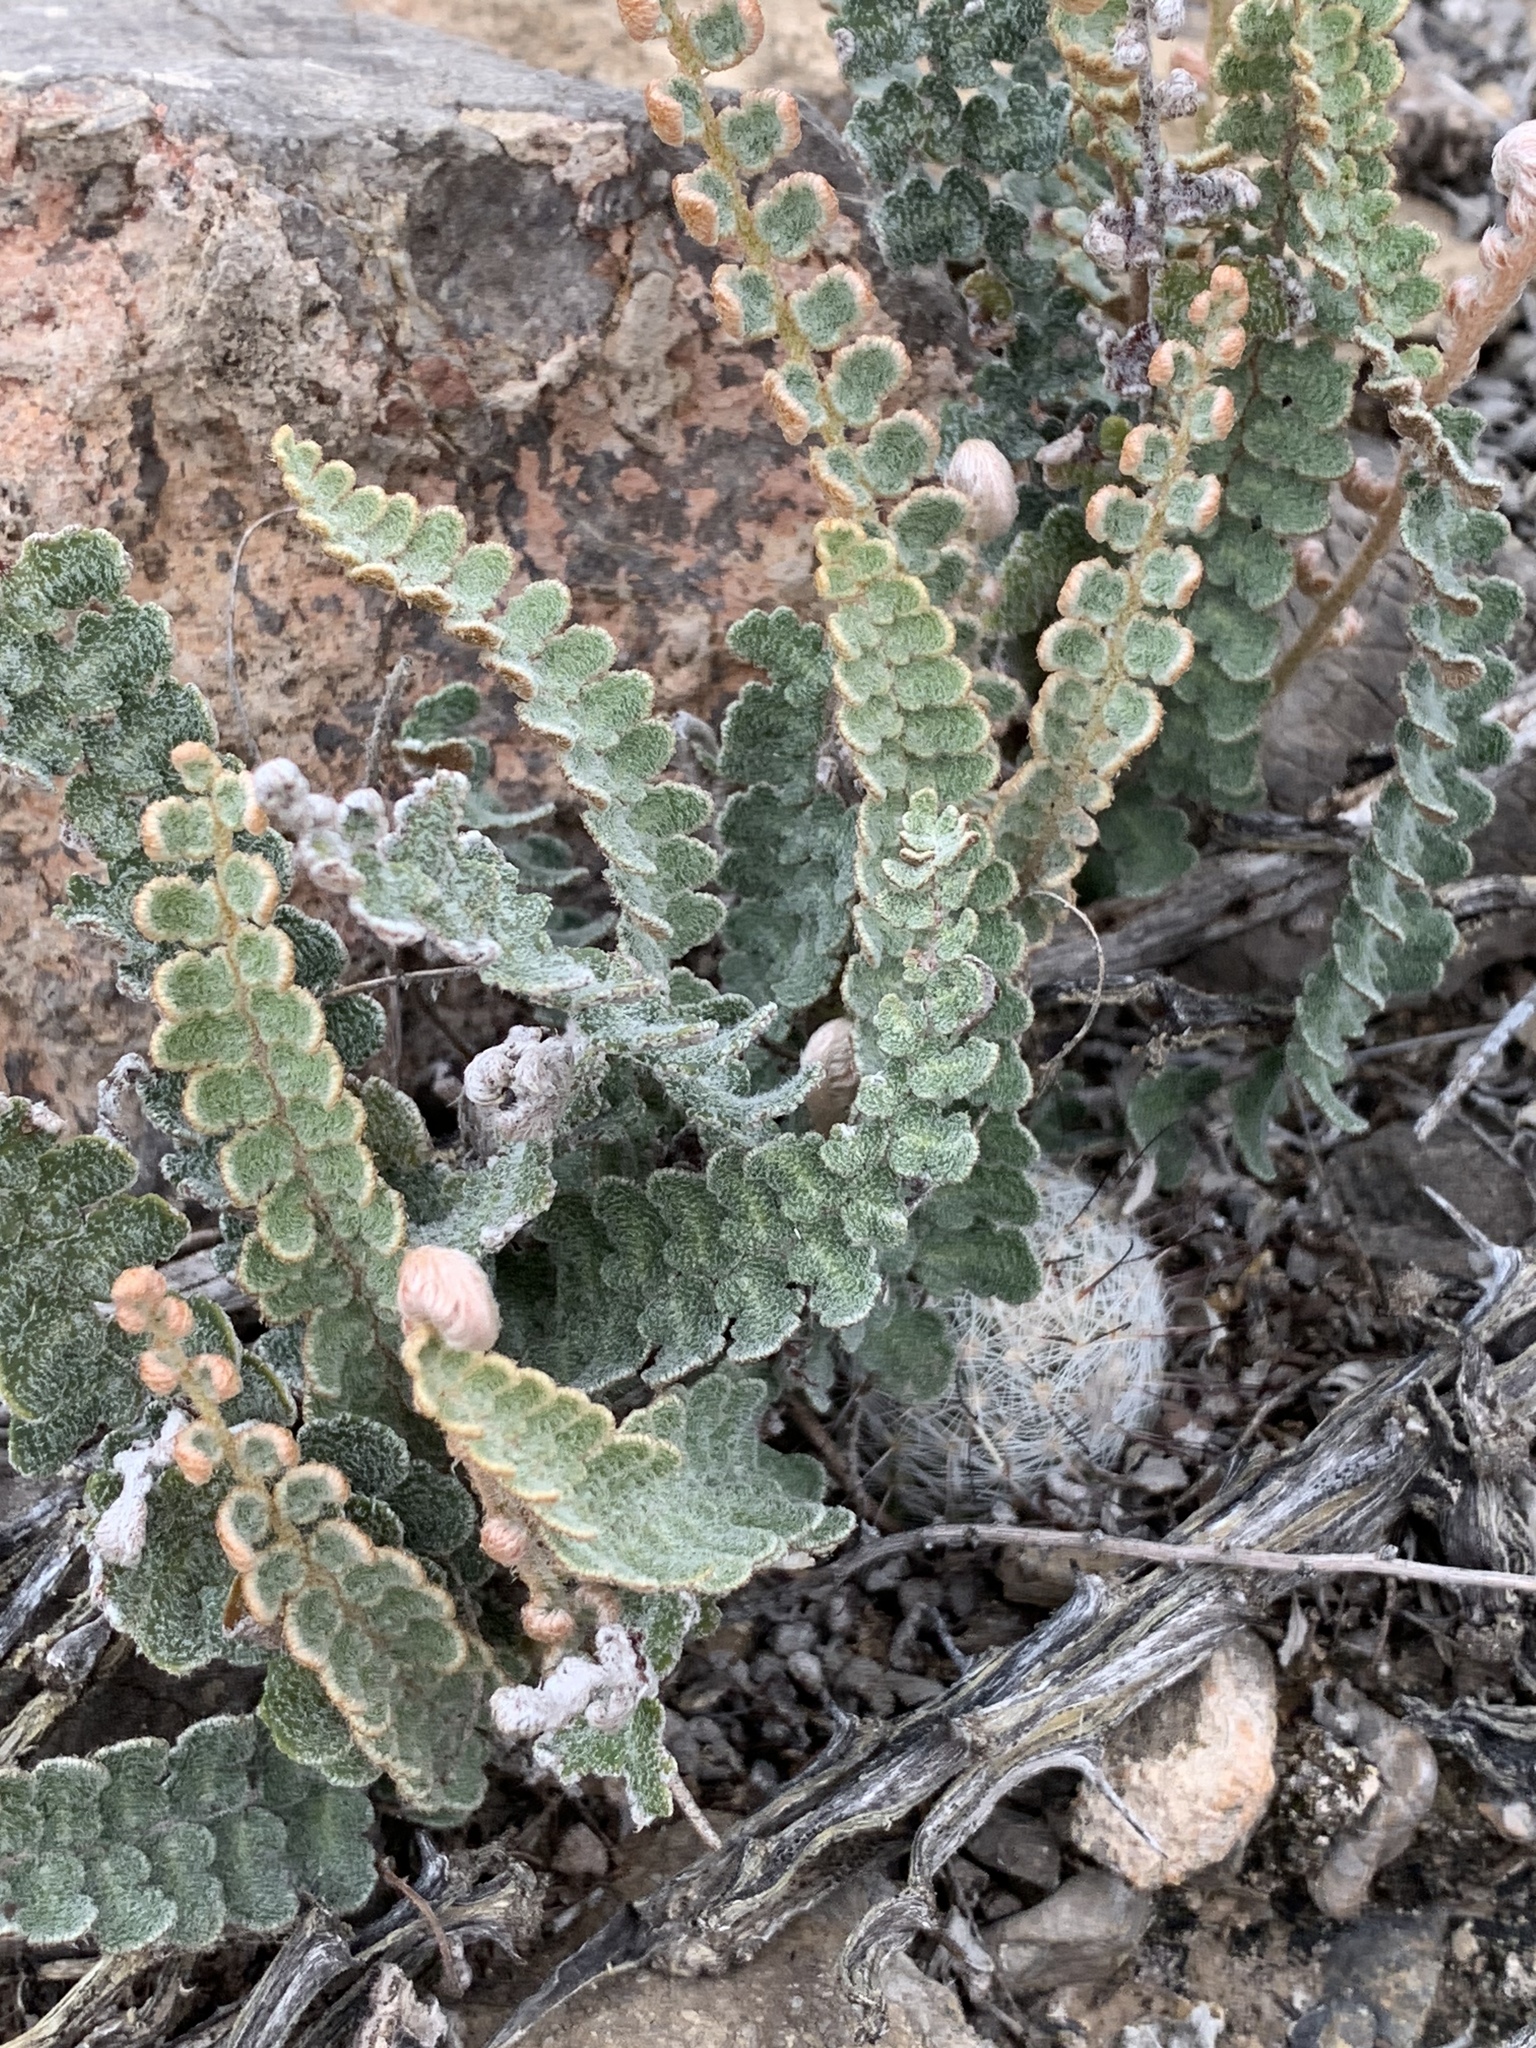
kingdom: Plantae
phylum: Tracheophyta
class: Polypodiopsida
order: Polypodiales
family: Pteridaceae
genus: Astrolepis
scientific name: Astrolepis integerrima
